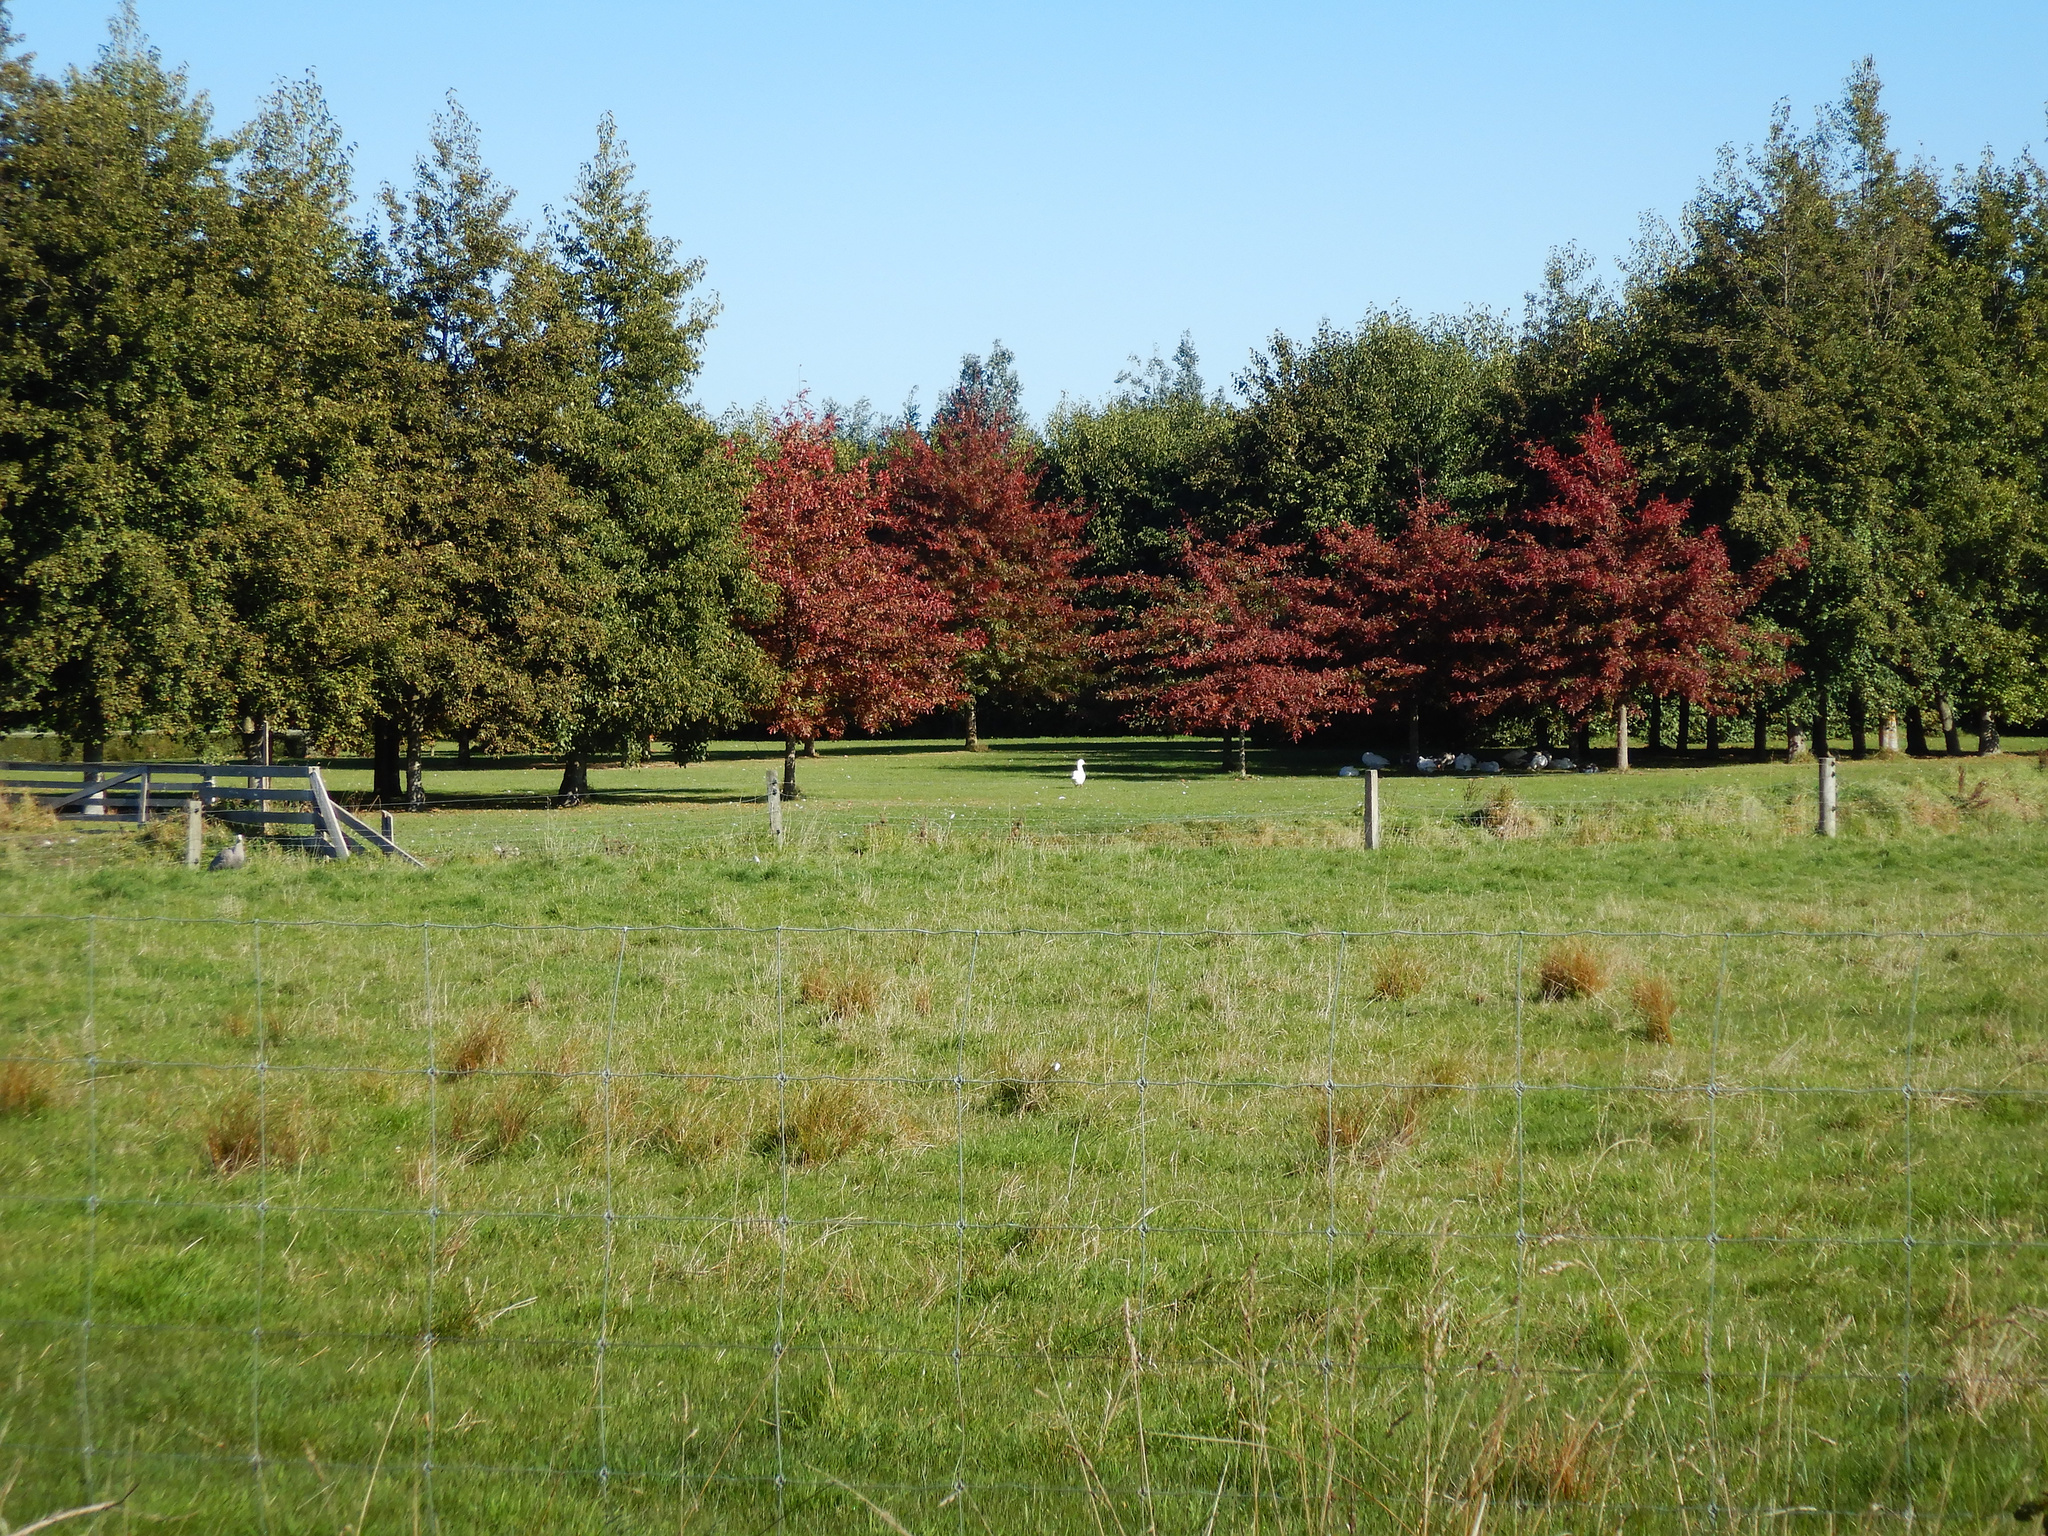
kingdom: Animalia
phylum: Chordata
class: Aves
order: Anseriformes
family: Anatidae
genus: Anser
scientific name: Anser anser
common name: Greylag goose
